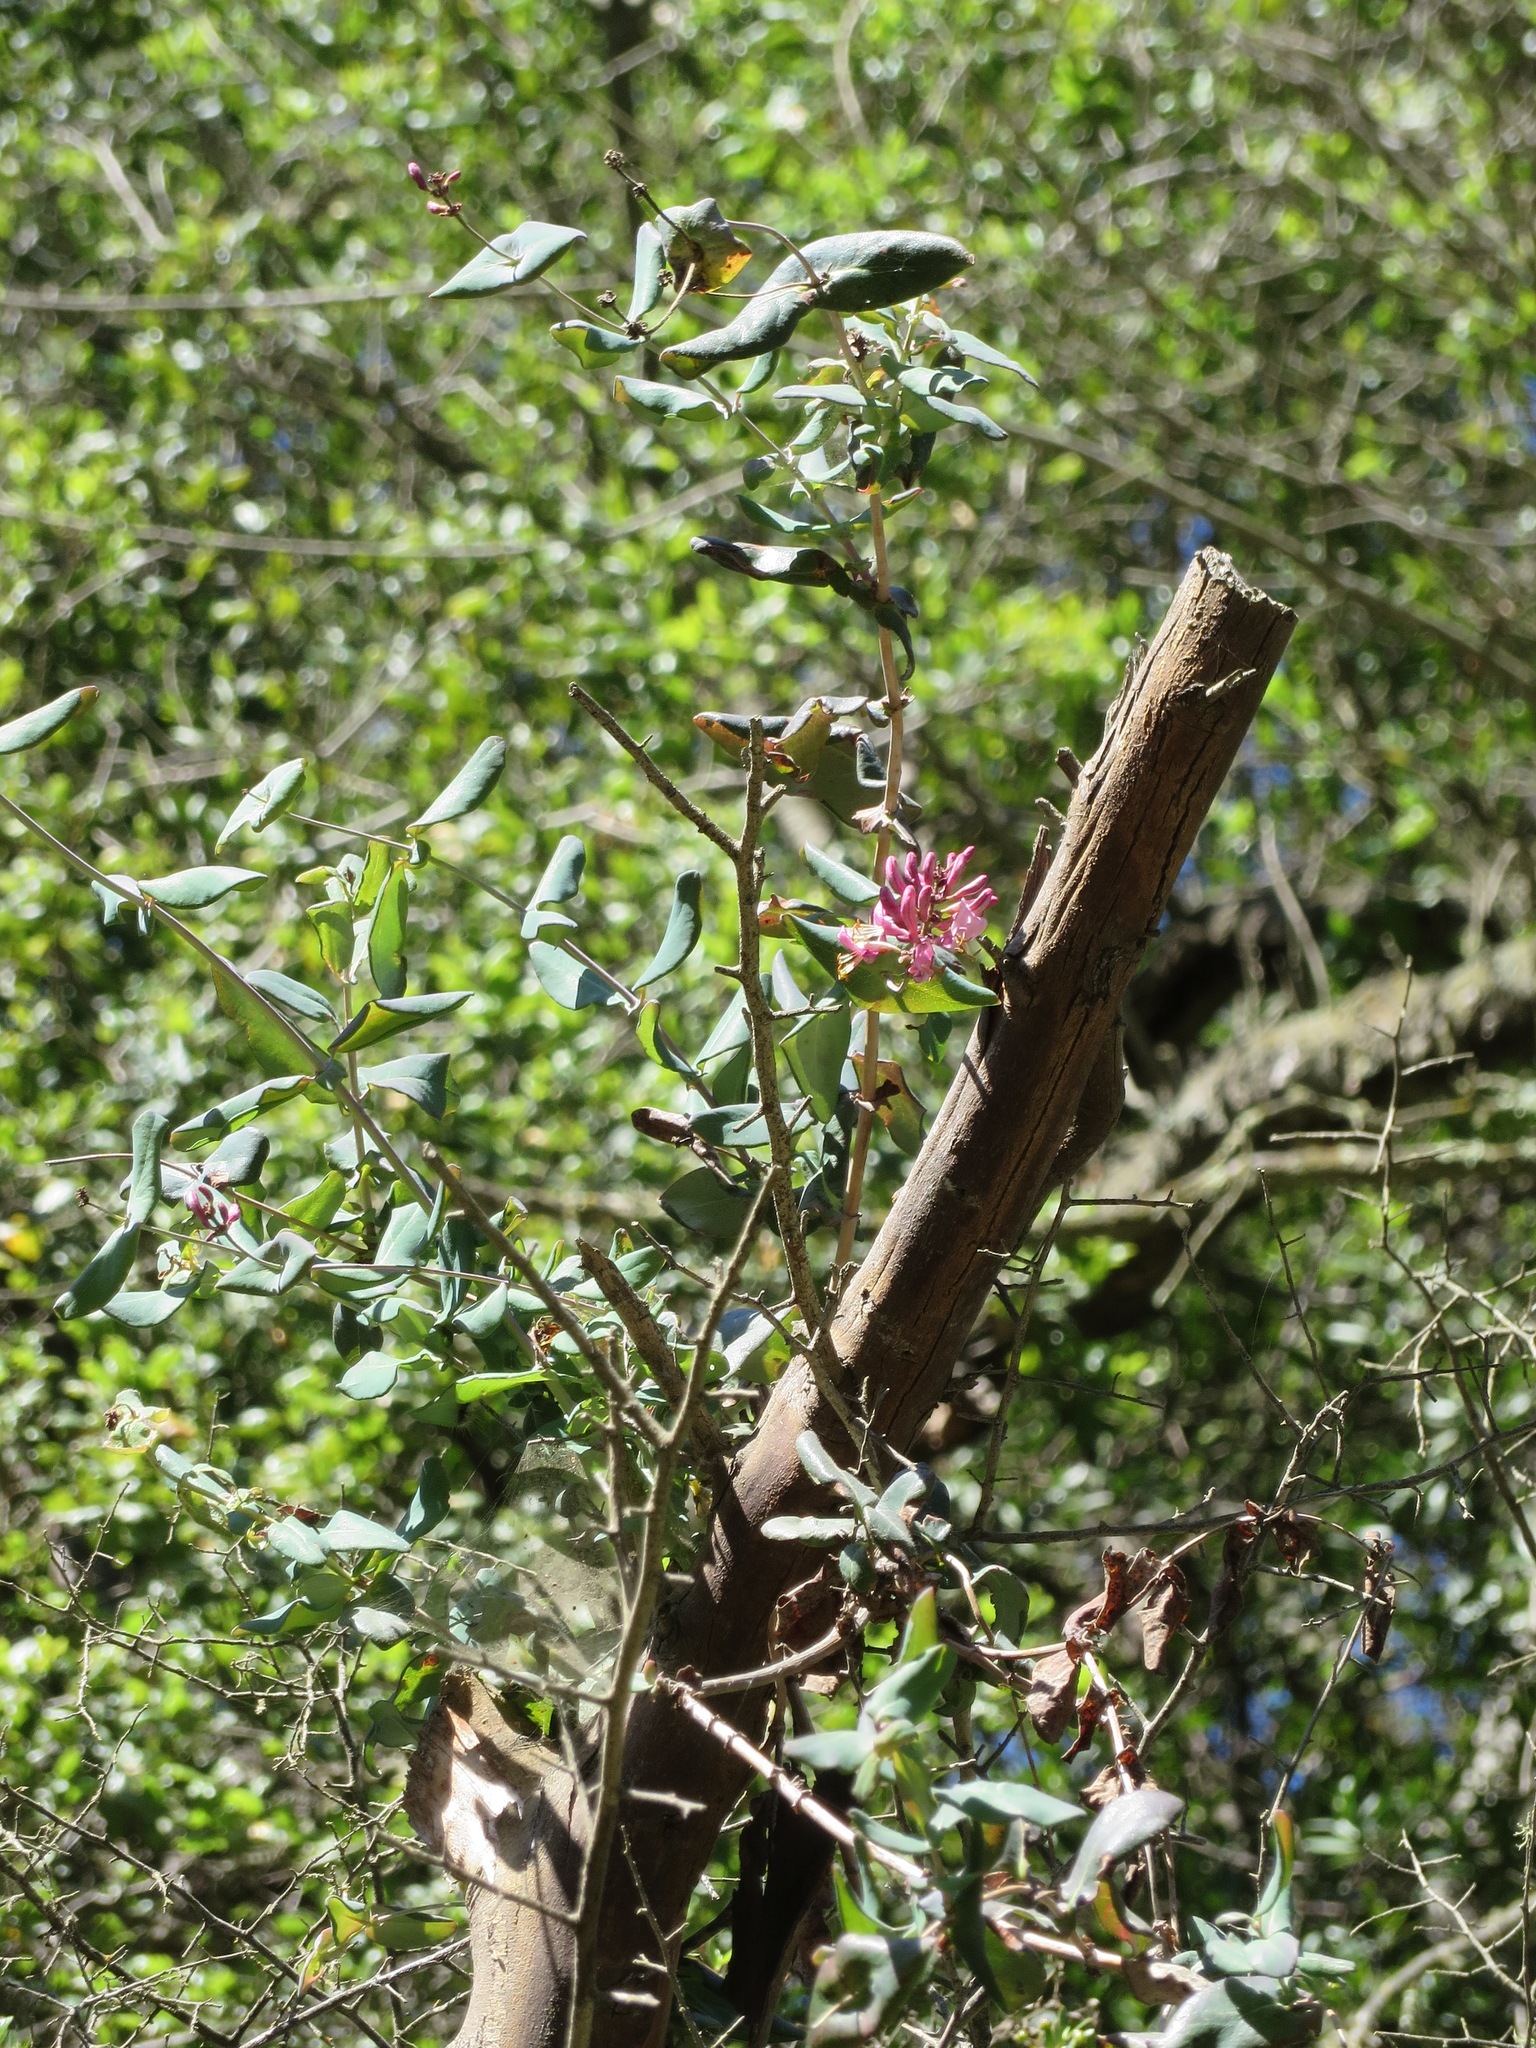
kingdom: Plantae
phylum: Tracheophyta
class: Magnoliopsida
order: Dipsacales
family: Caprifoliaceae
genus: Lonicera
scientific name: Lonicera hispidula
